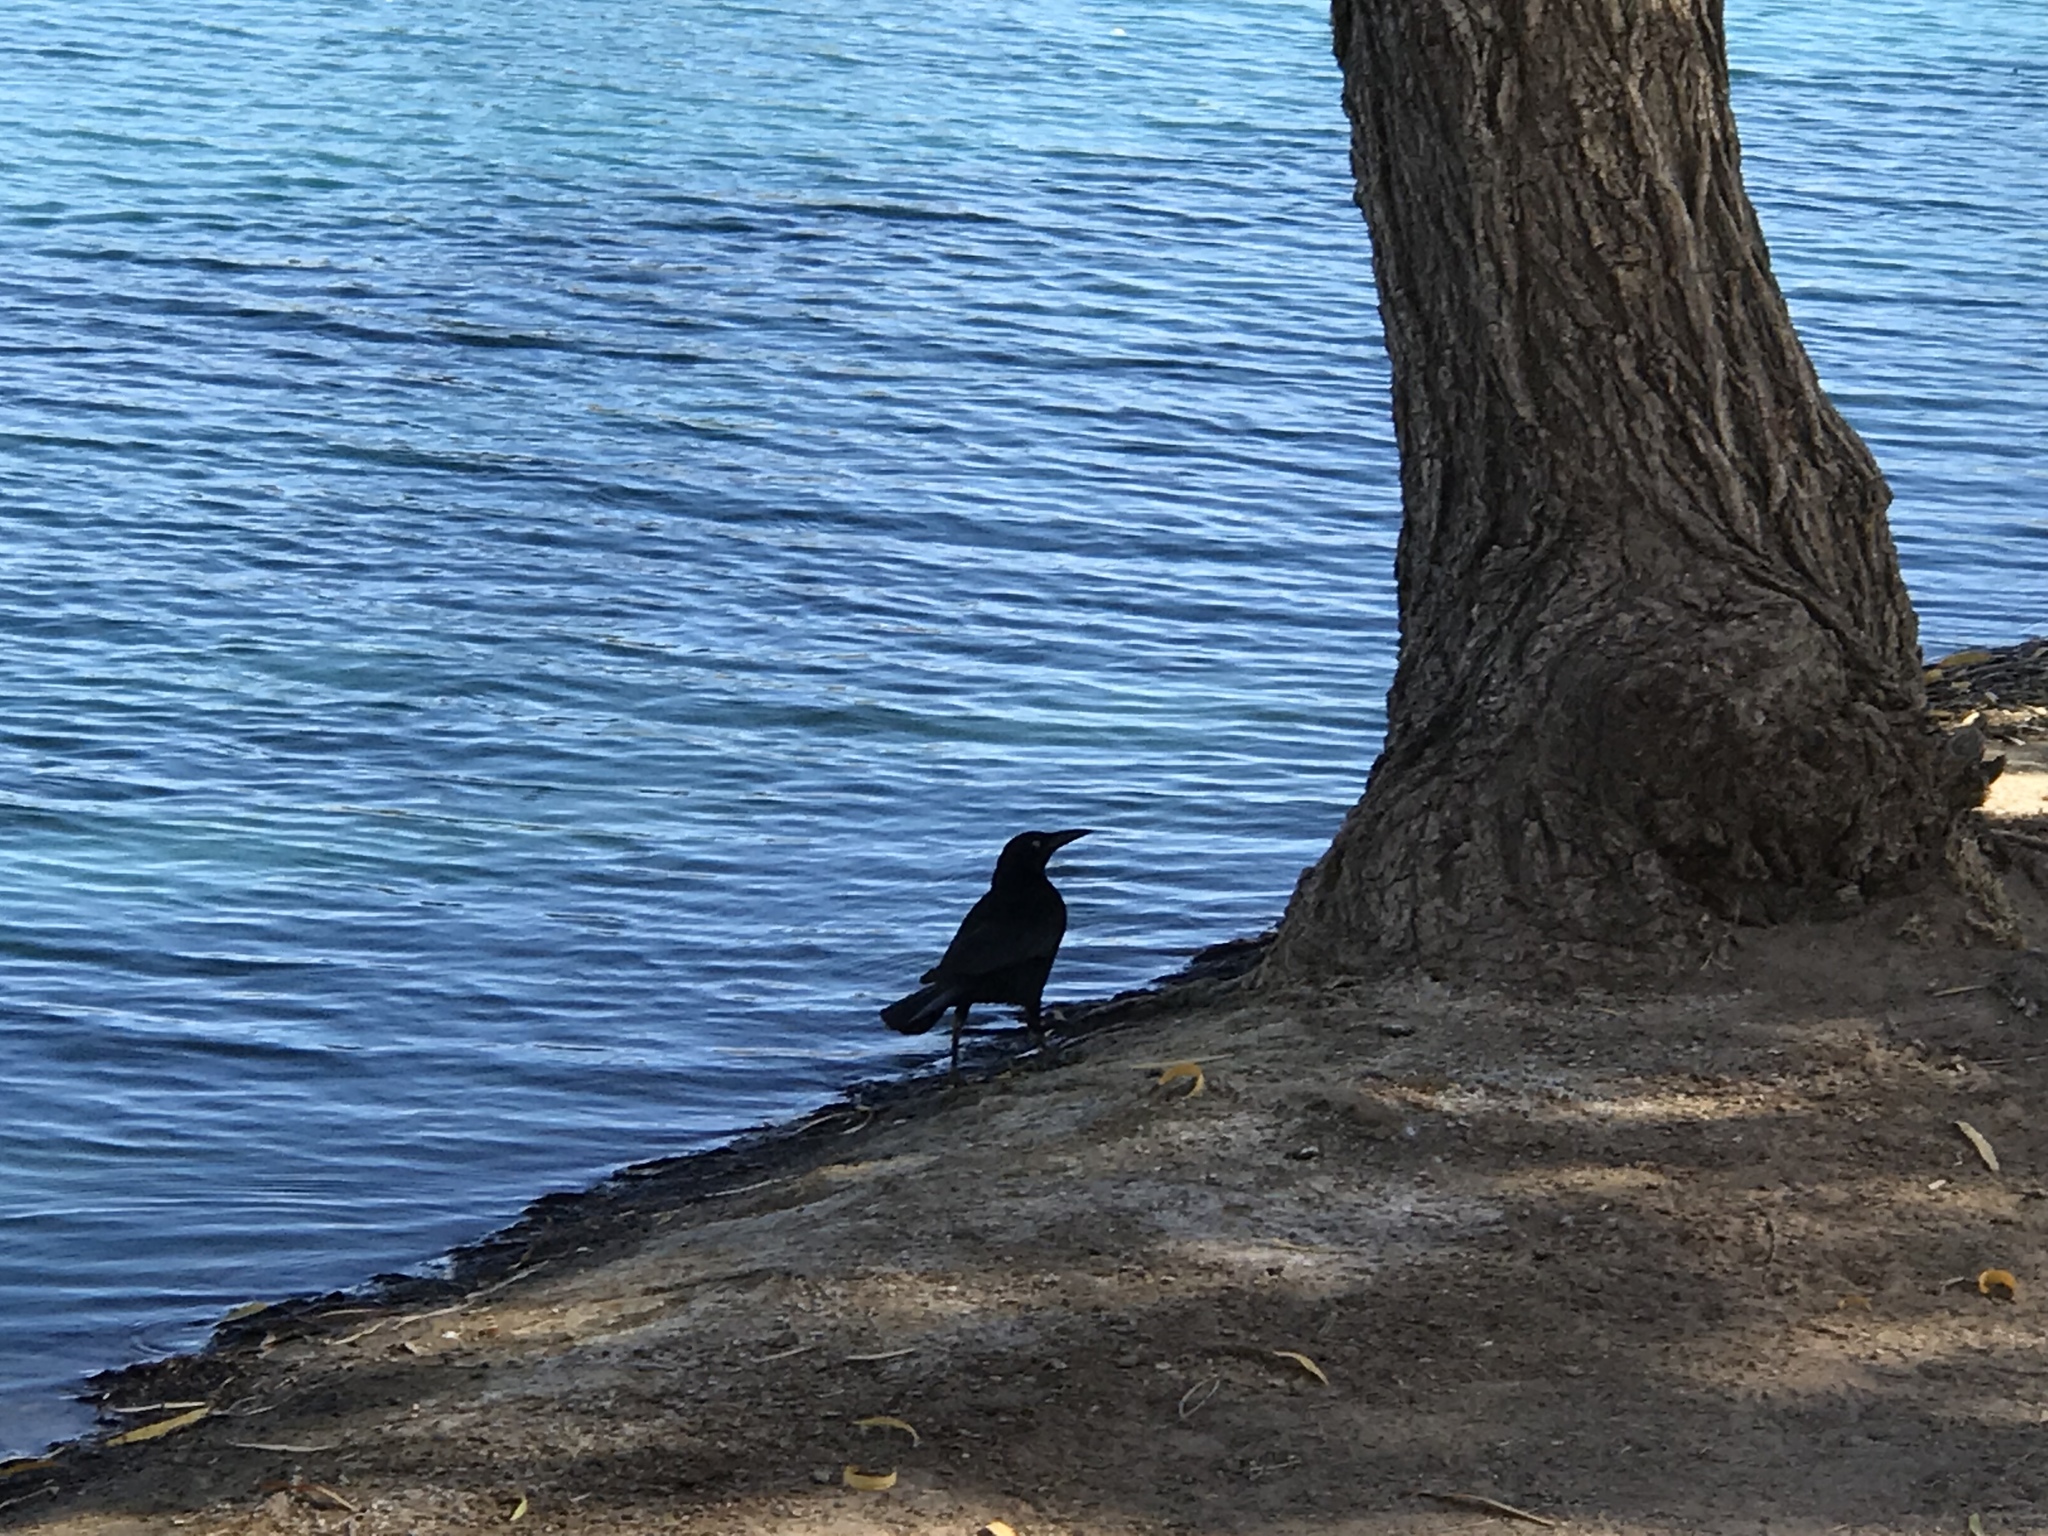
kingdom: Animalia
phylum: Chordata
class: Aves
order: Passeriformes
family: Icteridae
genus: Quiscalus
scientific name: Quiscalus mexicanus
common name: Great-tailed grackle
